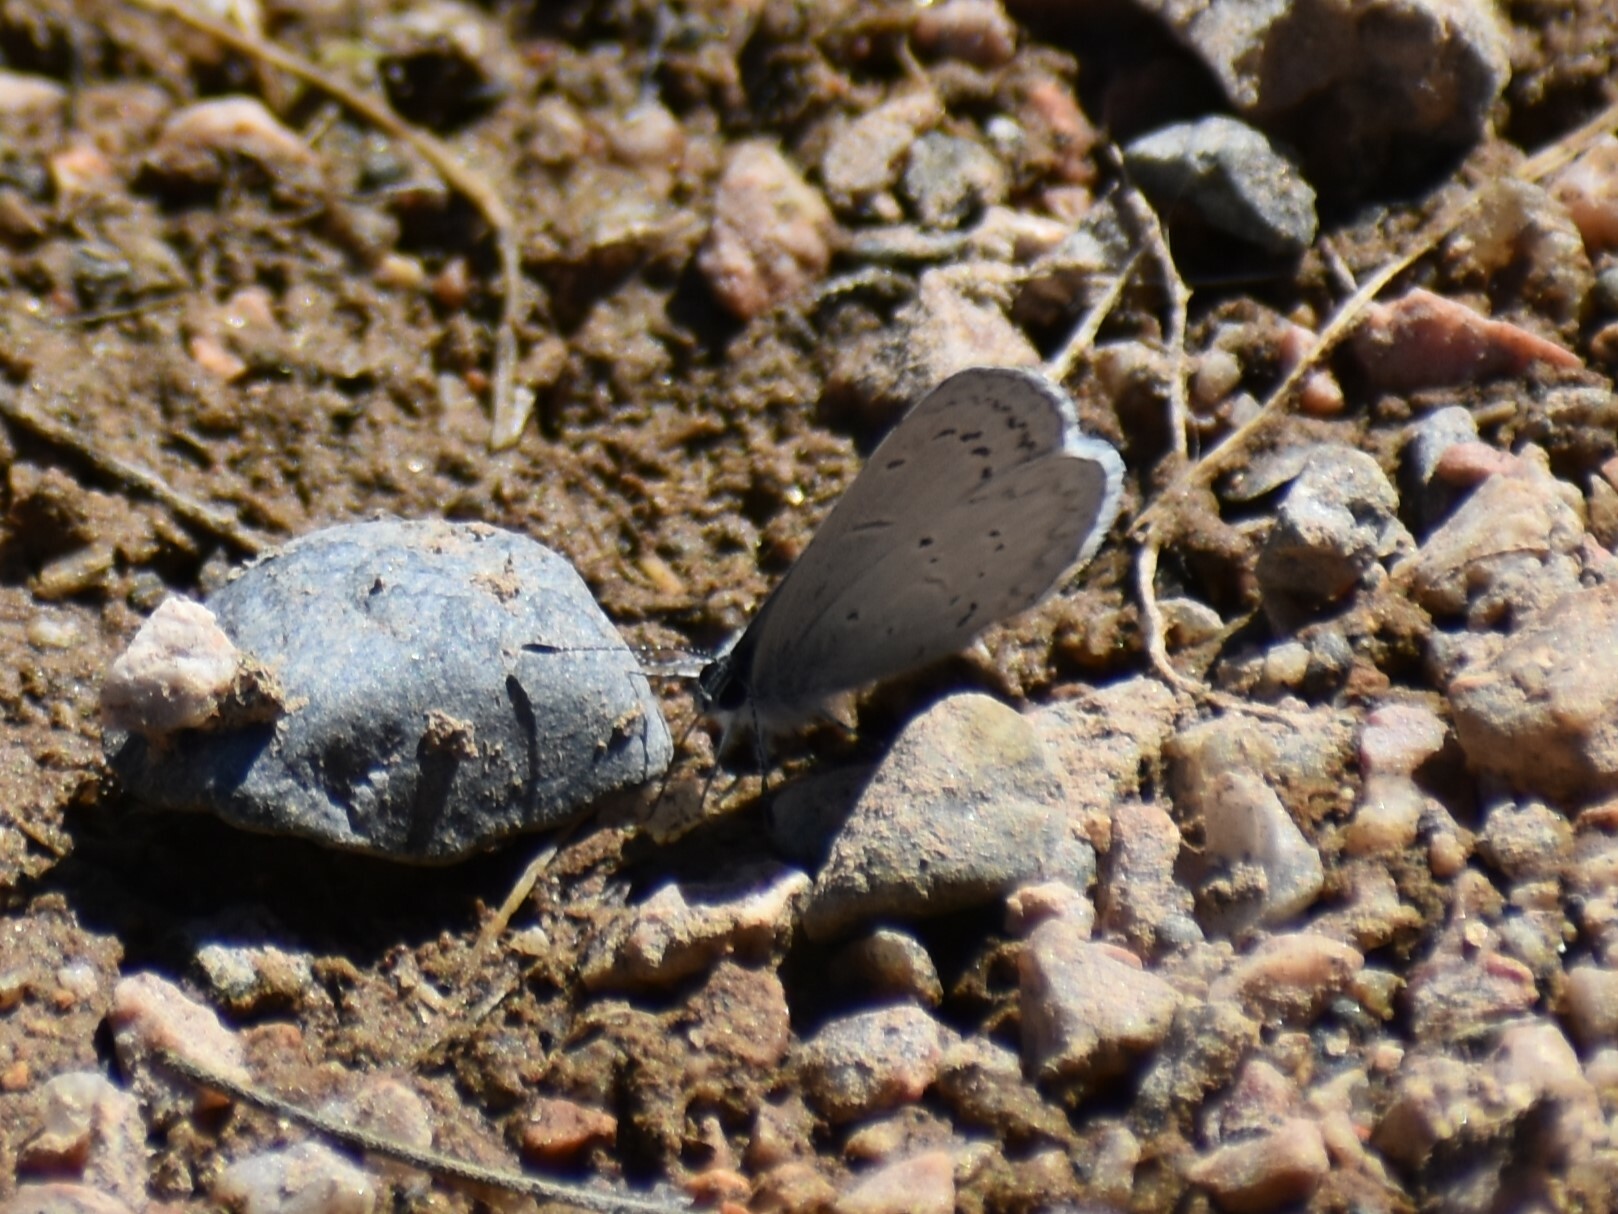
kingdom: Animalia
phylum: Arthropoda
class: Insecta
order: Lepidoptera
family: Lycaenidae
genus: Celastrina
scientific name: Celastrina ladon
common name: Spring azure
